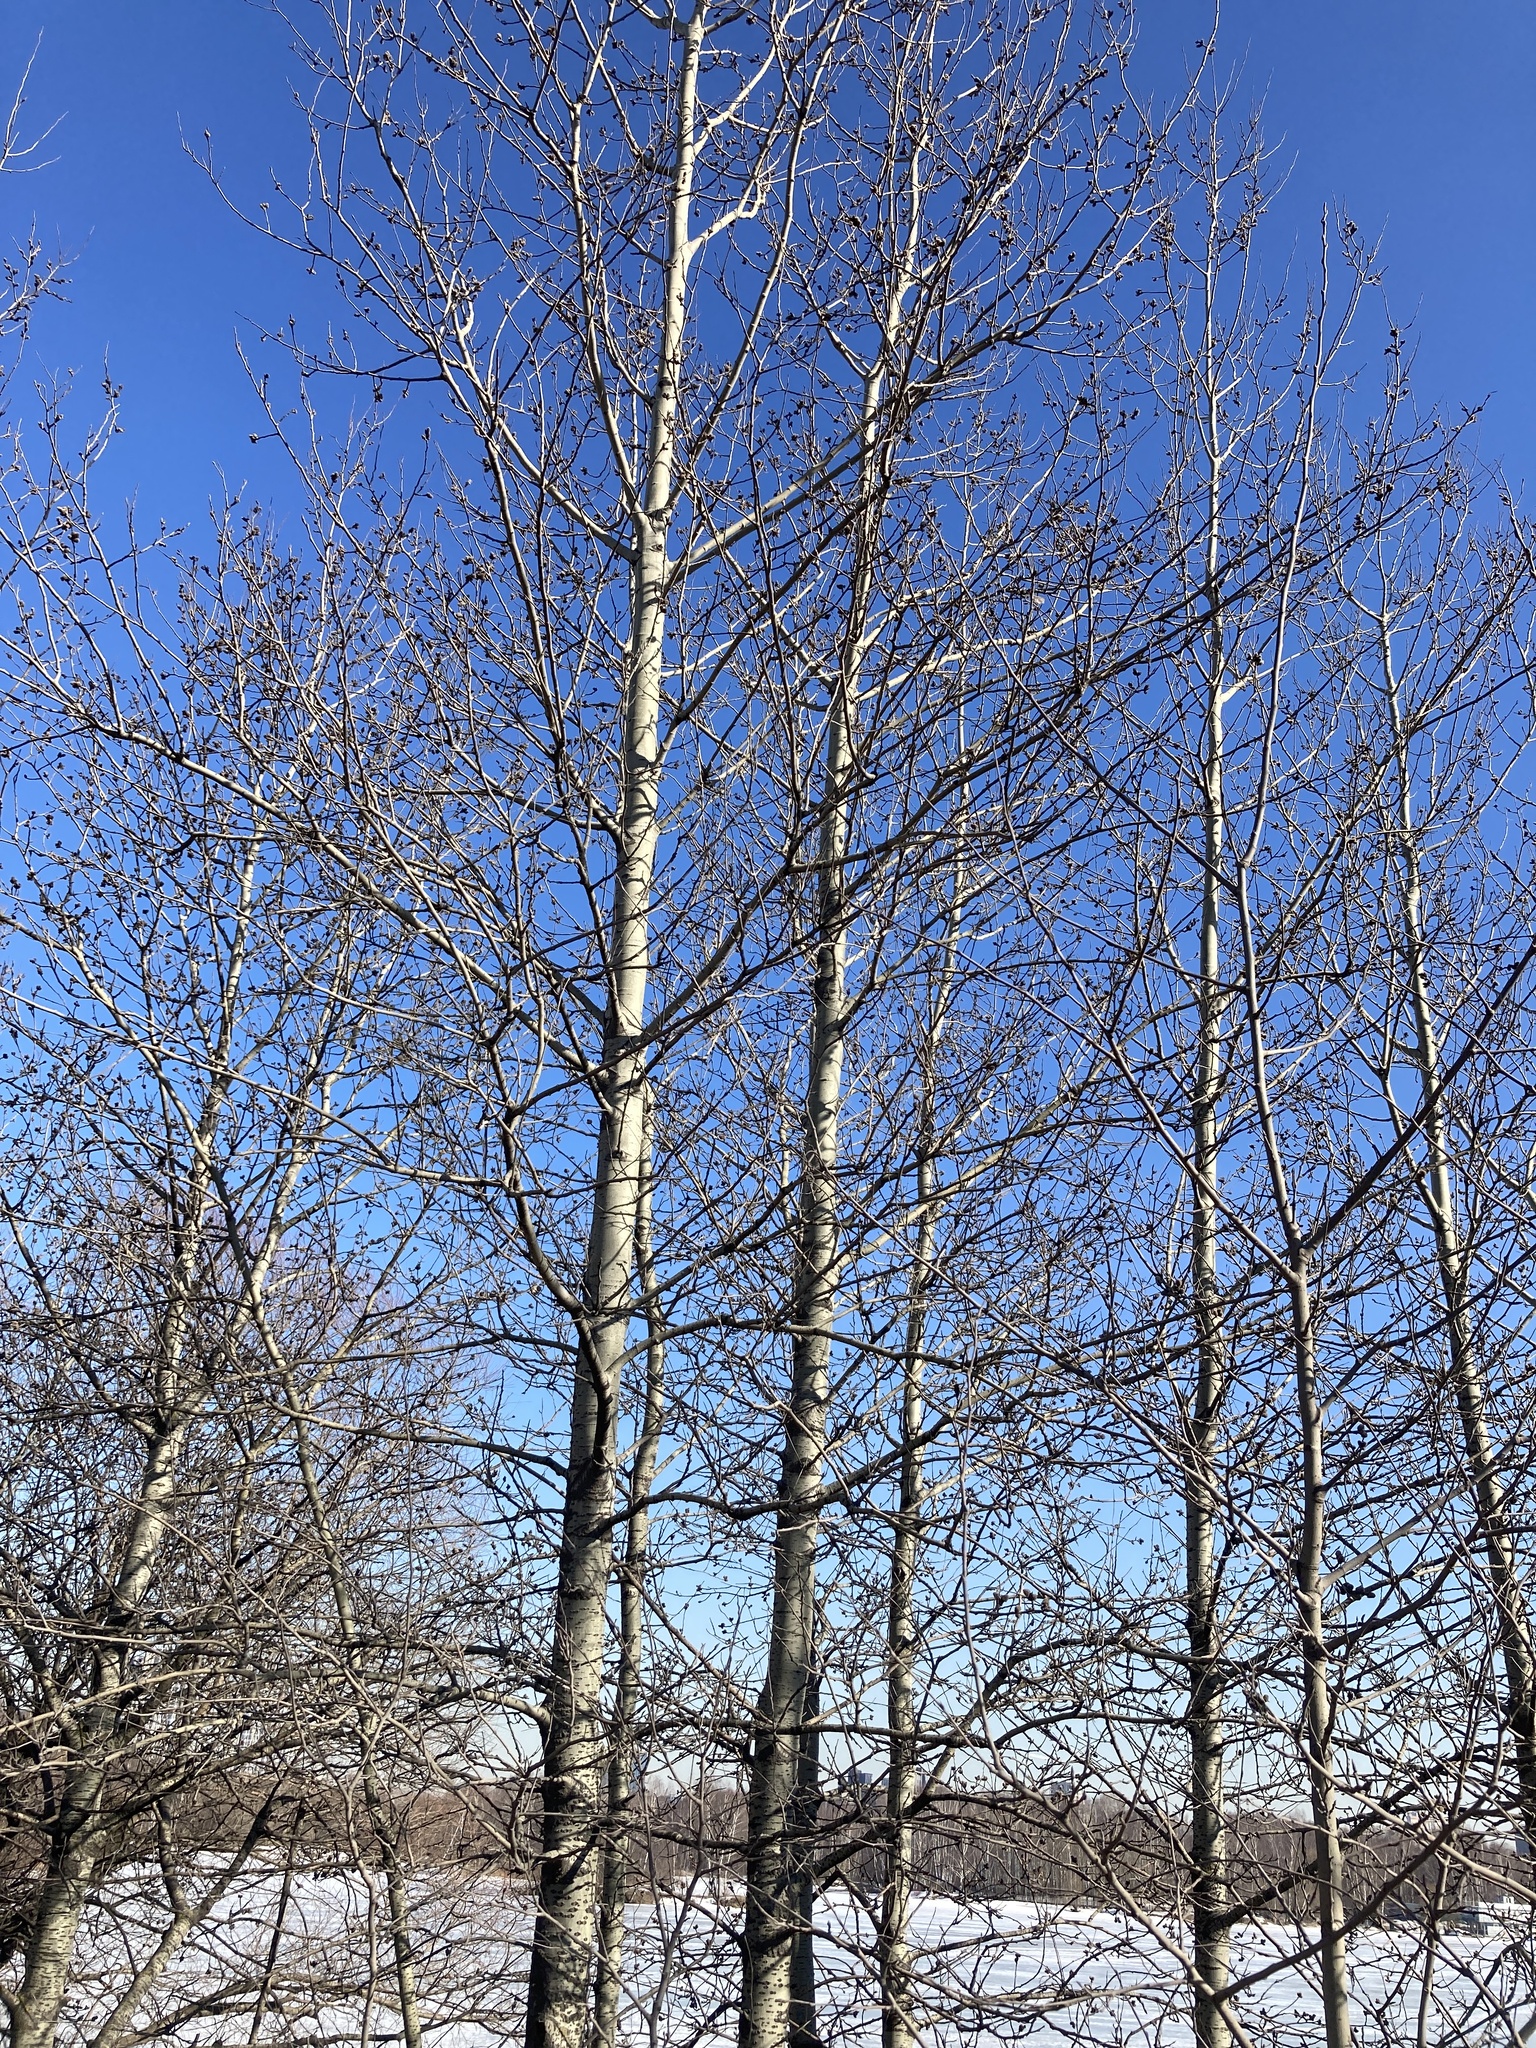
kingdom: Plantae
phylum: Tracheophyta
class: Magnoliopsida
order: Malpighiales
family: Salicaceae
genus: Populus
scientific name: Populus tremula
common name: European aspen
